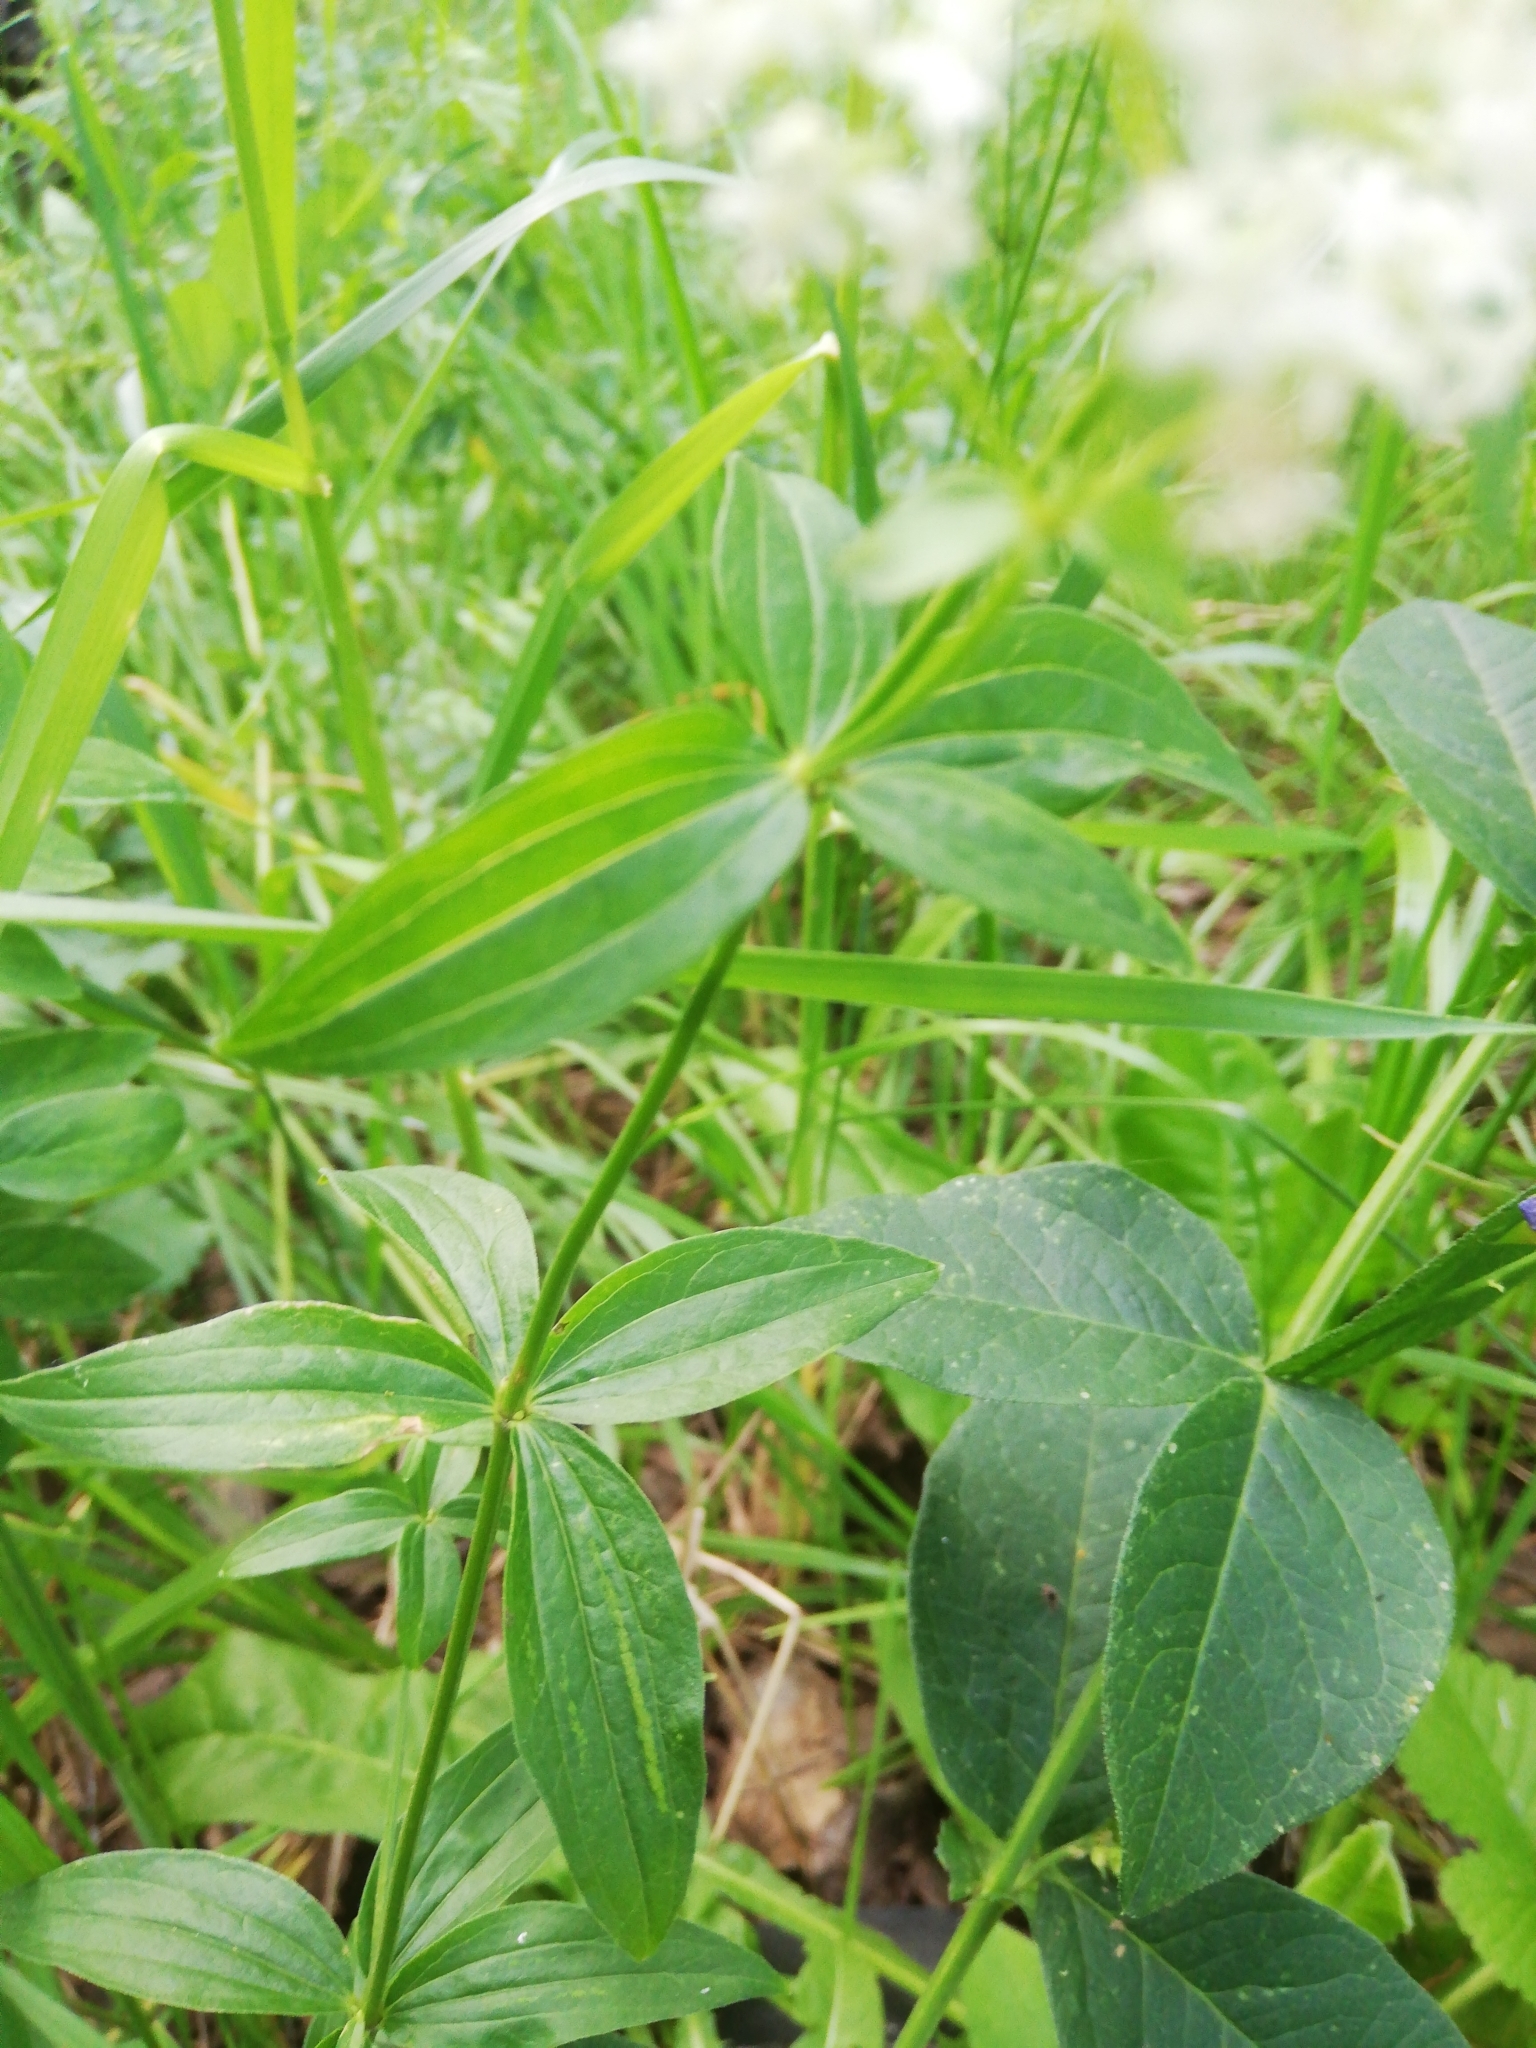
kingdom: Plantae
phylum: Tracheophyta
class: Magnoliopsida
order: Gentianales
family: Rubiaceae
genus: Galium
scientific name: Galium rubioides
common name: European bedstraw
